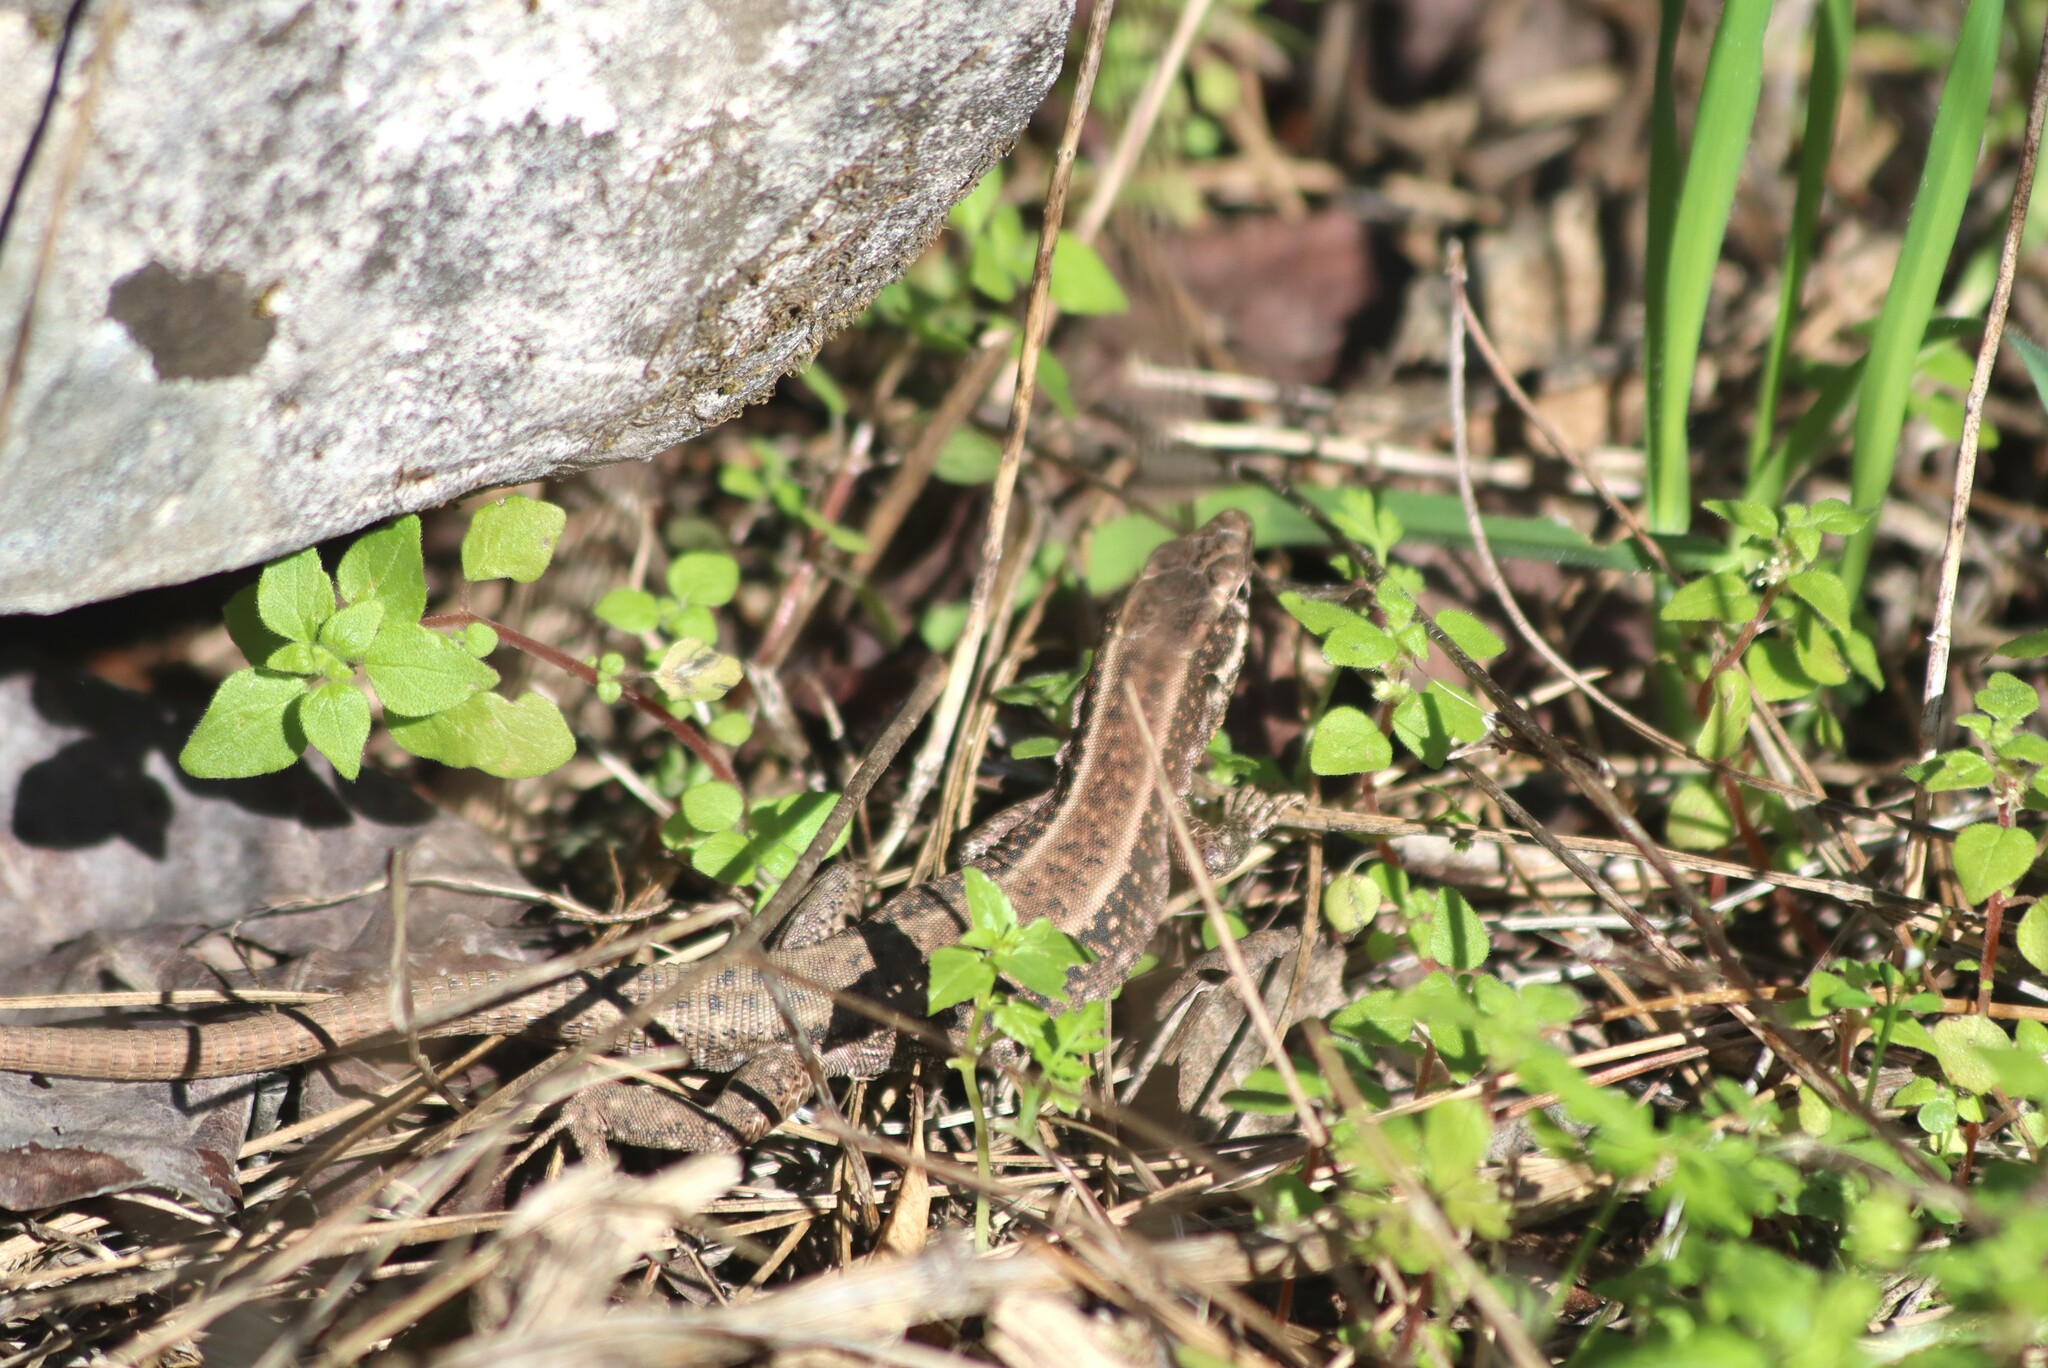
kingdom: Animalia
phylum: Chordata
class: Squamata
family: Lacertidae
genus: Anatololacerta
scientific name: Anatololacerta finikensis
